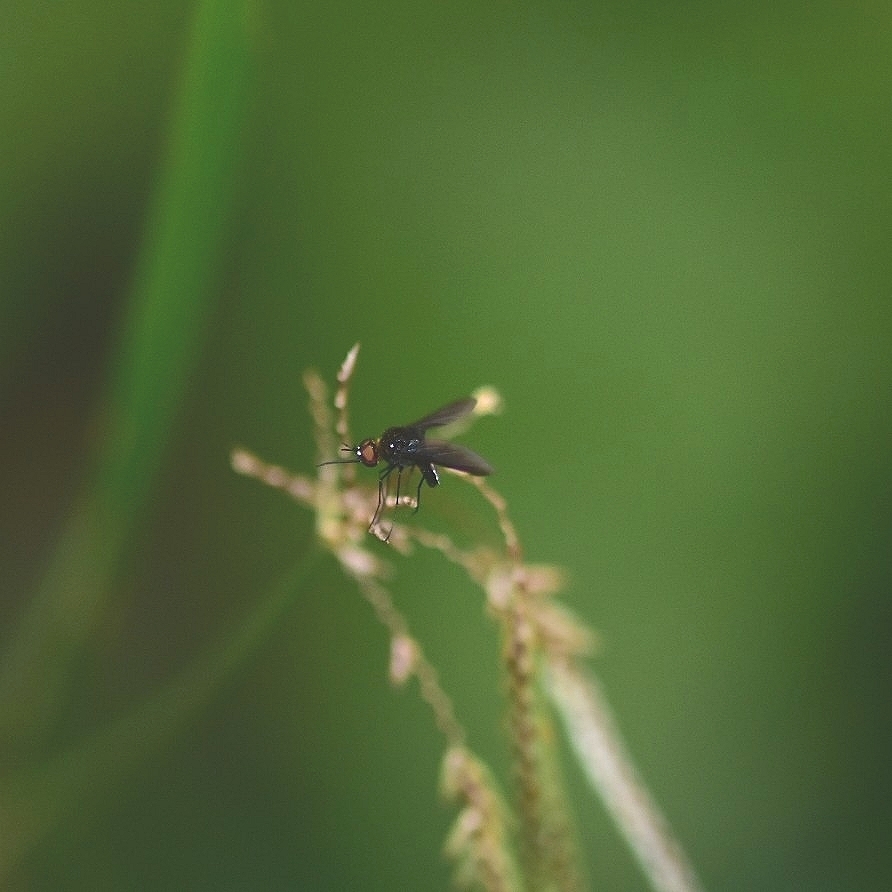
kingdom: Animalia
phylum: Arthropoda
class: Insecta
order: Diptera
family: Bombyliidae
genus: Euchariomyia
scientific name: Euchariomyia dives
